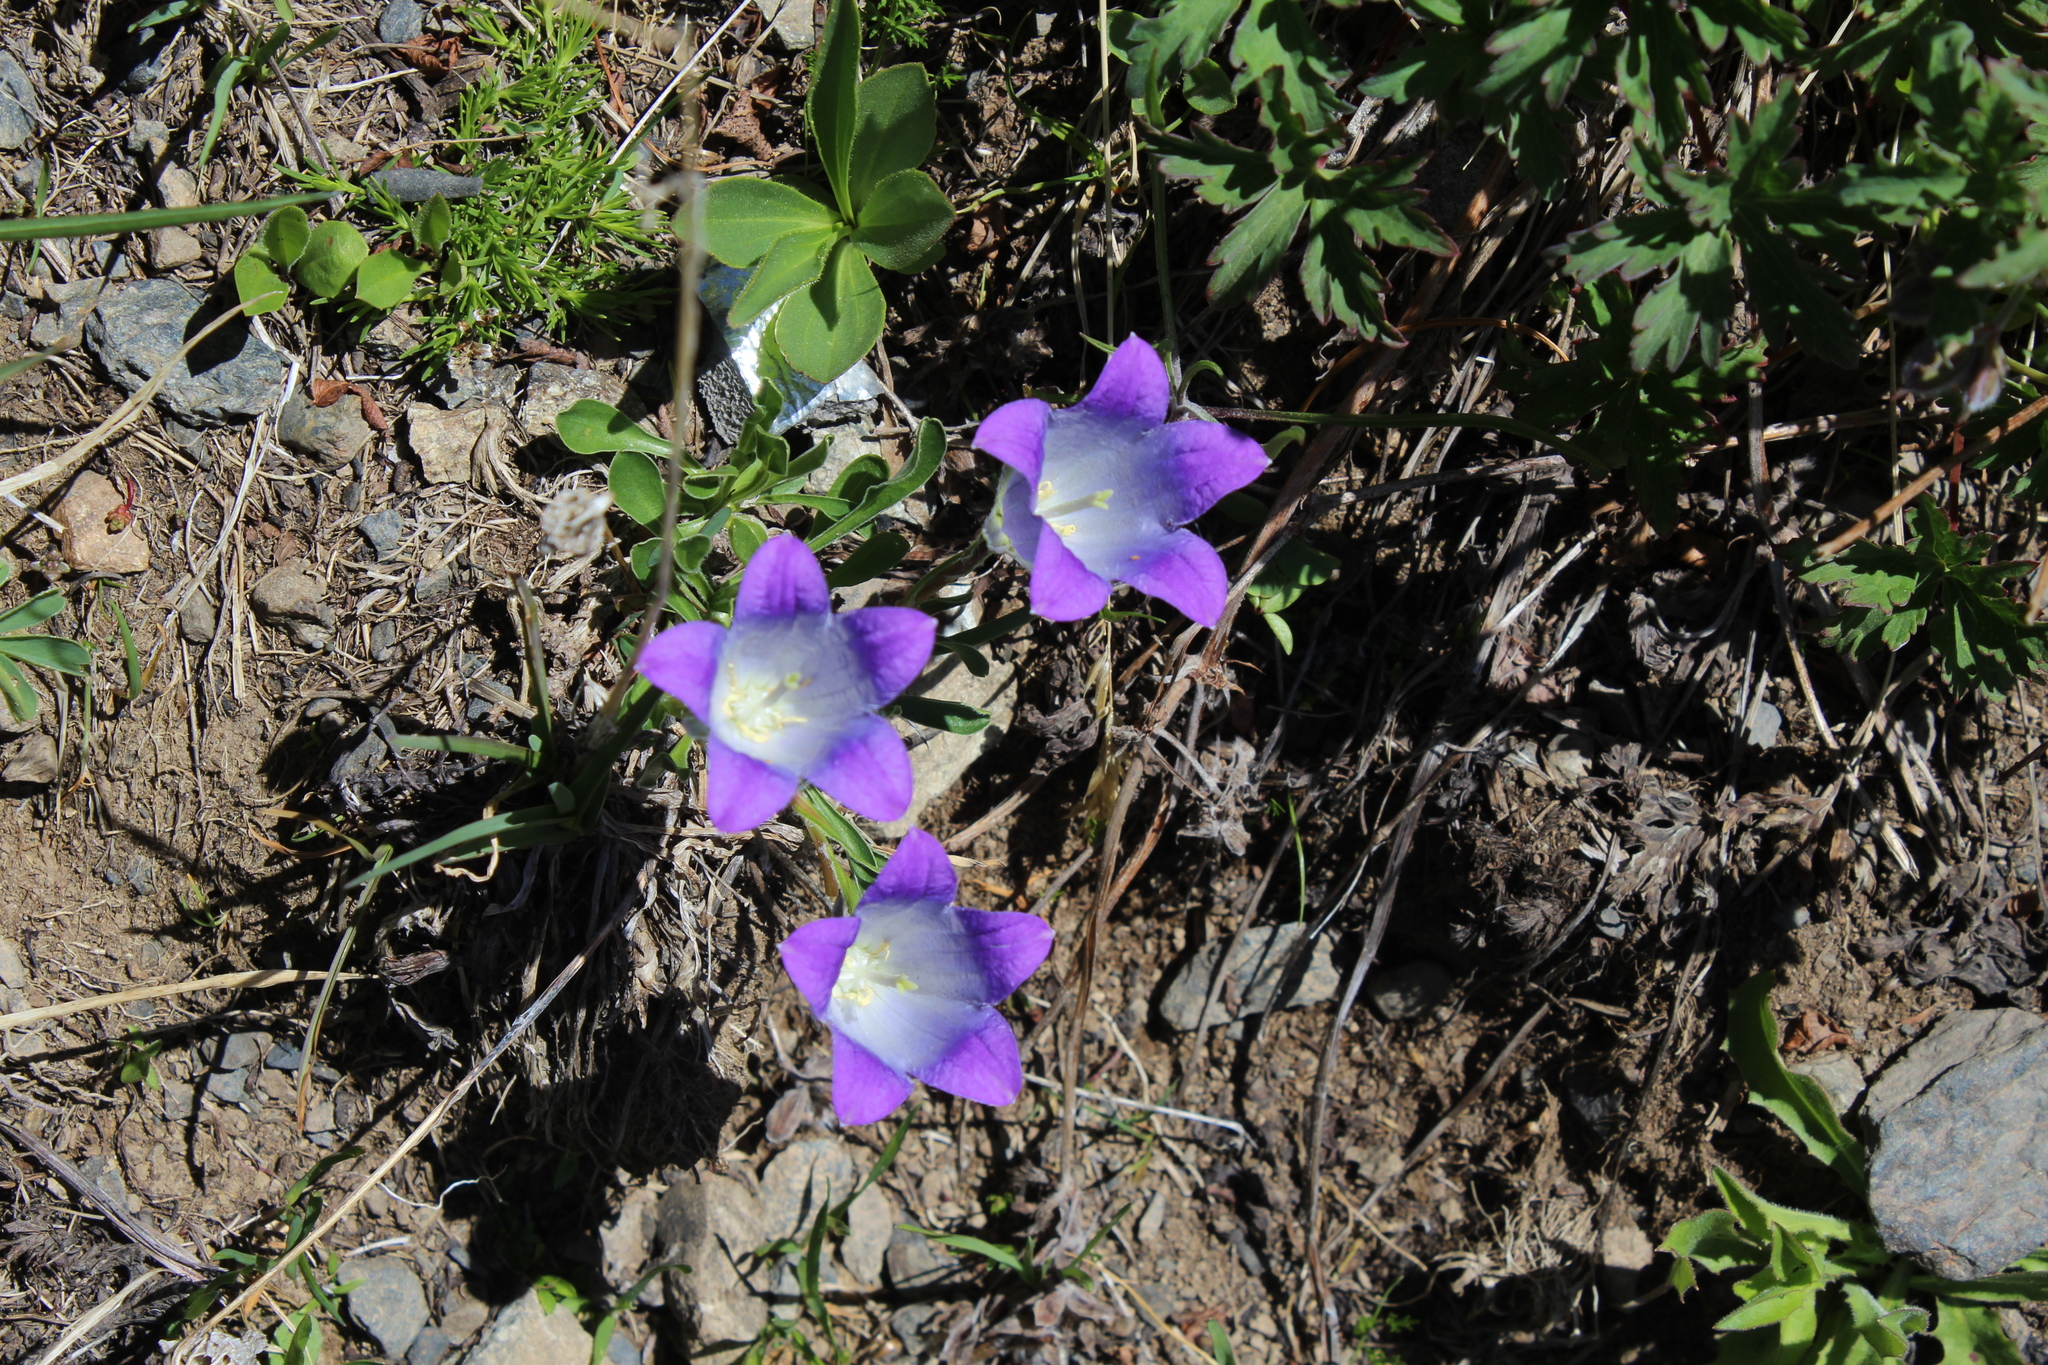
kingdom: Plantae
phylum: Tracheophyta
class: Magnoliopsida
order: Asterales
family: Campanulaceae
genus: Campanula
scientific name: Campanula tridentata
